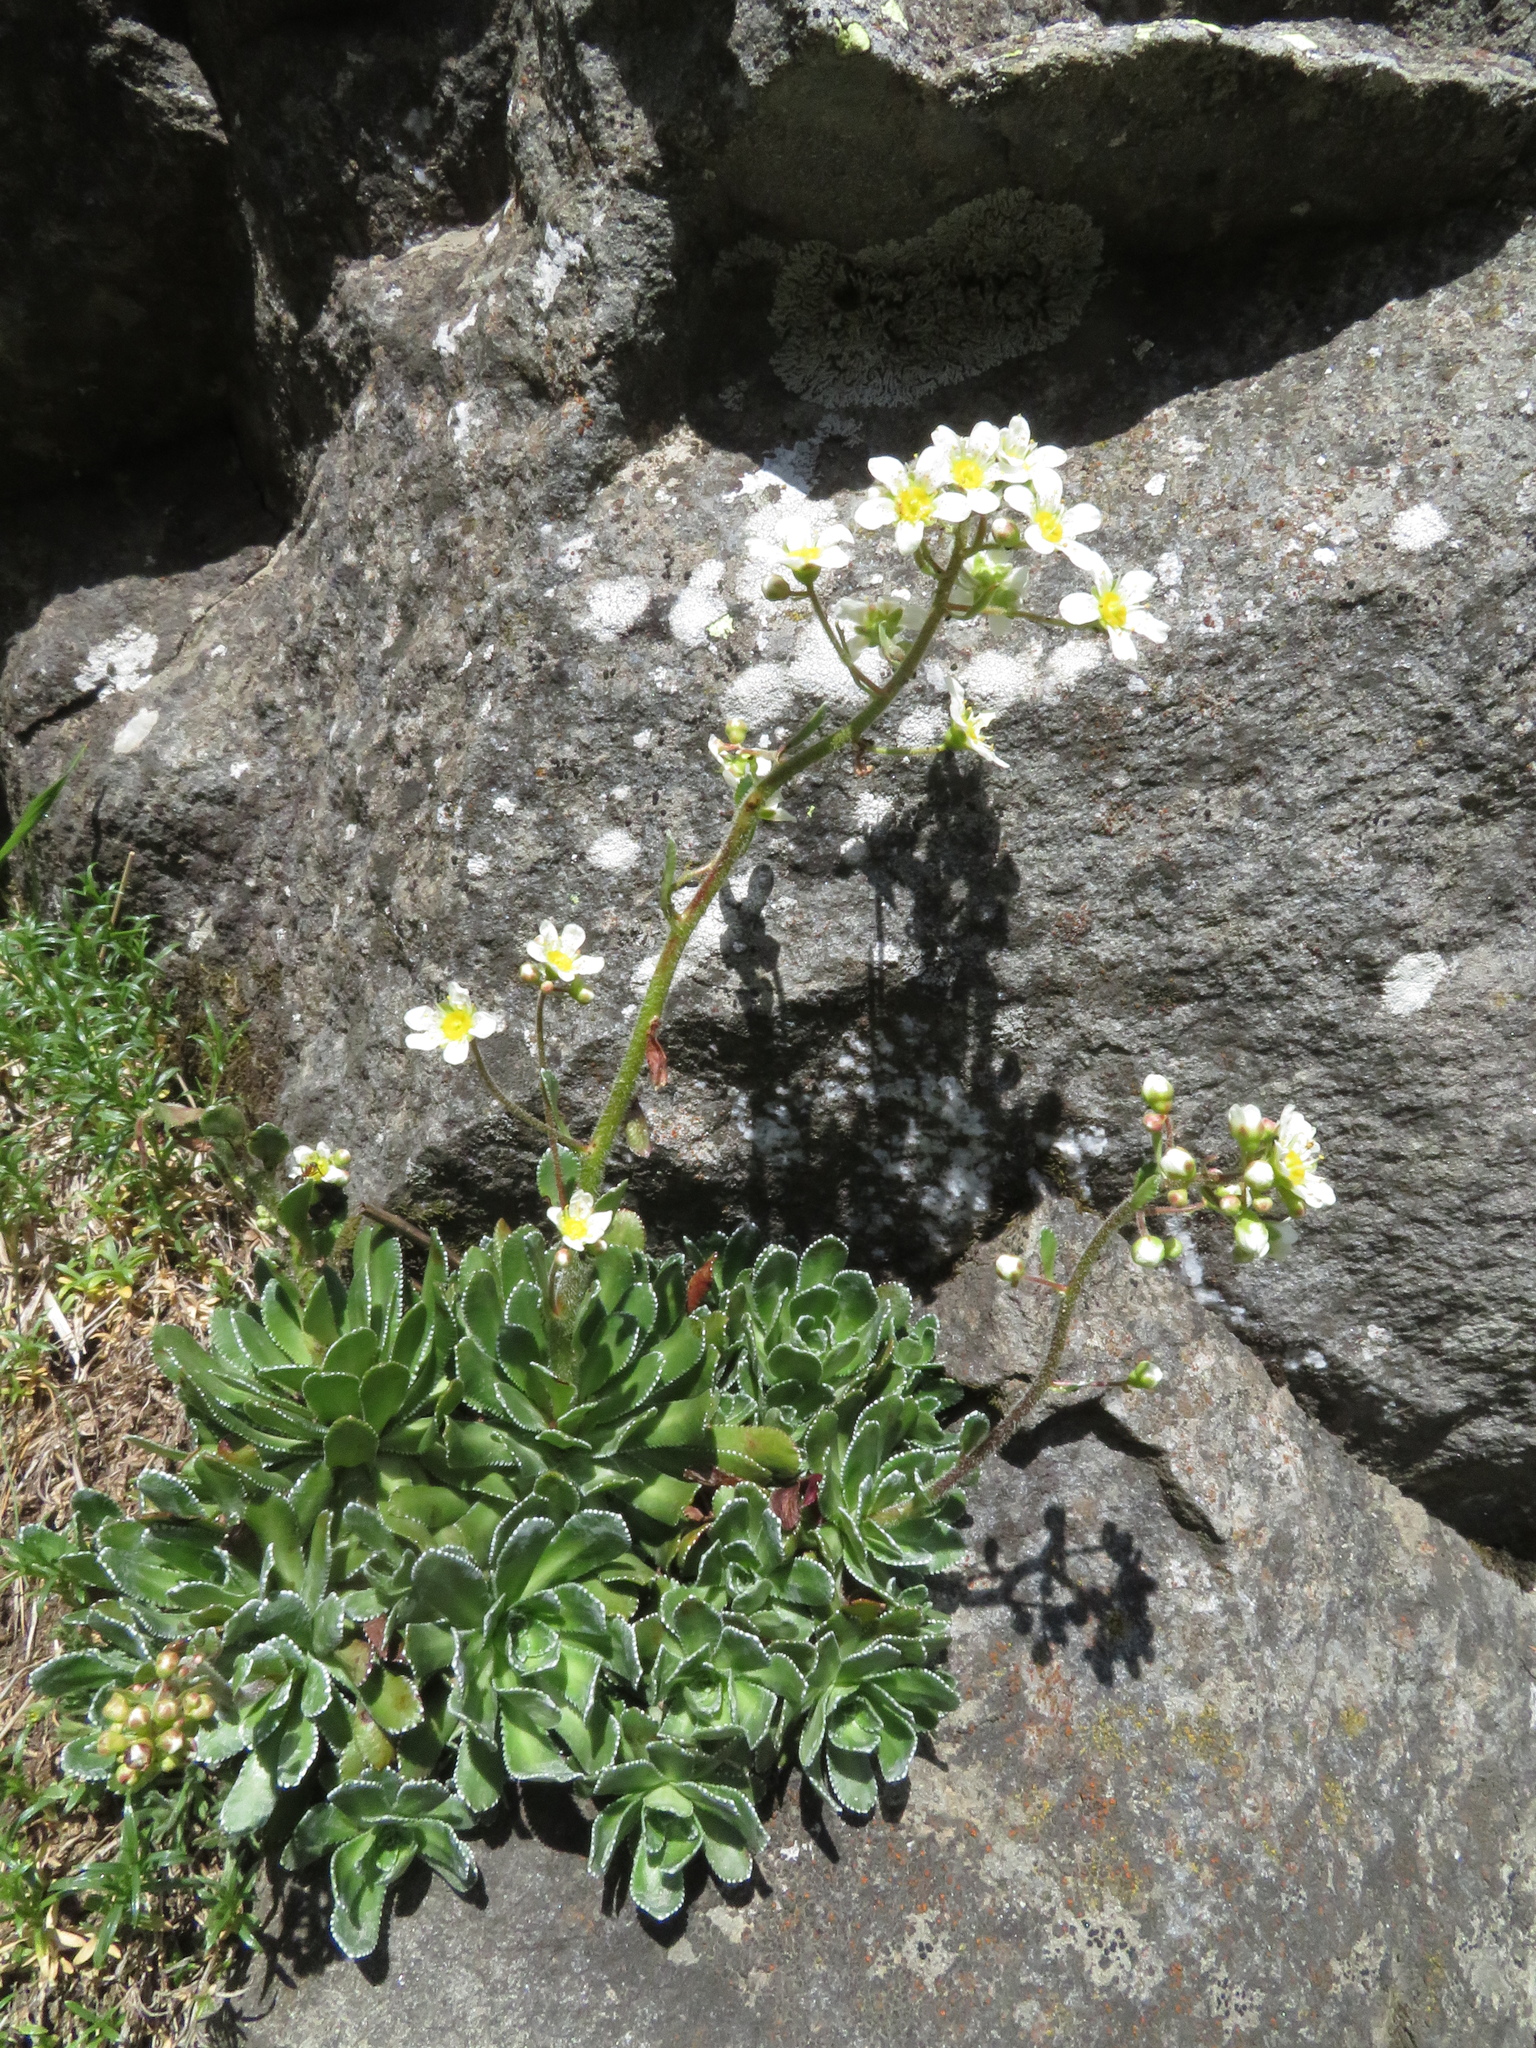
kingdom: Plantae
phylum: Tracheophyta
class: Magnoliopsida
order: Saxifragales
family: Saxifragaceae
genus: Saxifraga
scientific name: Saxifraga paniculata
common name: Livelong saxifrage
